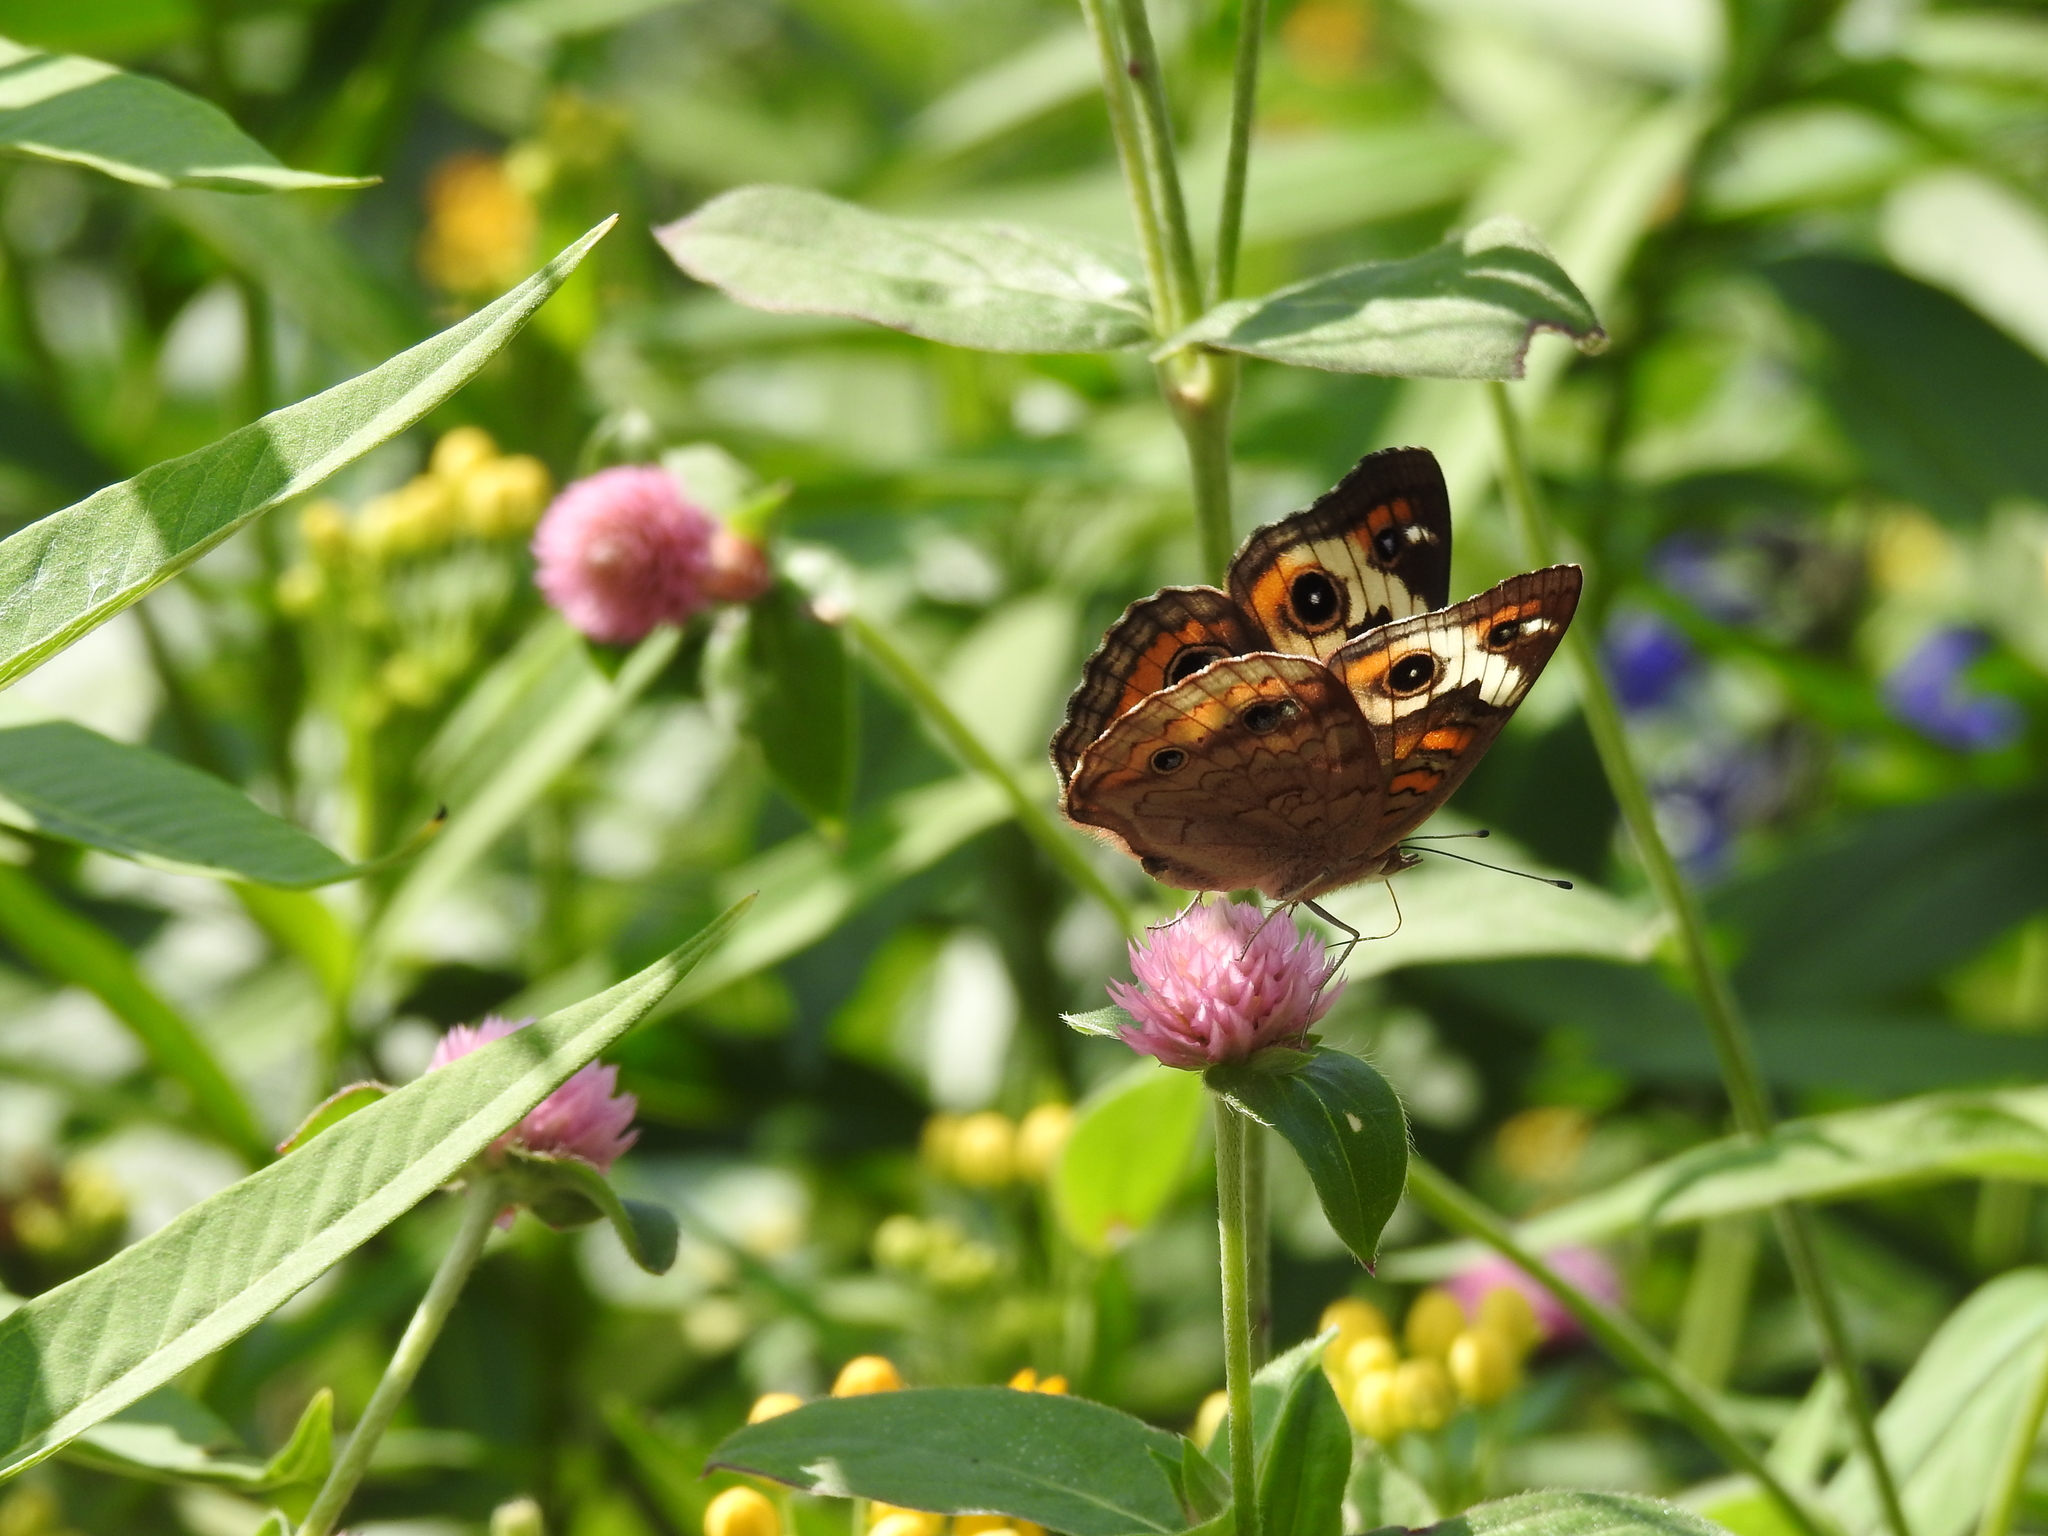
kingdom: Animalia
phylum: Arthropoda
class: Insecta
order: Lepidoptera
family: Nymphalidae
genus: Junonia
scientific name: Junonia coenia
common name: Common buckeye
